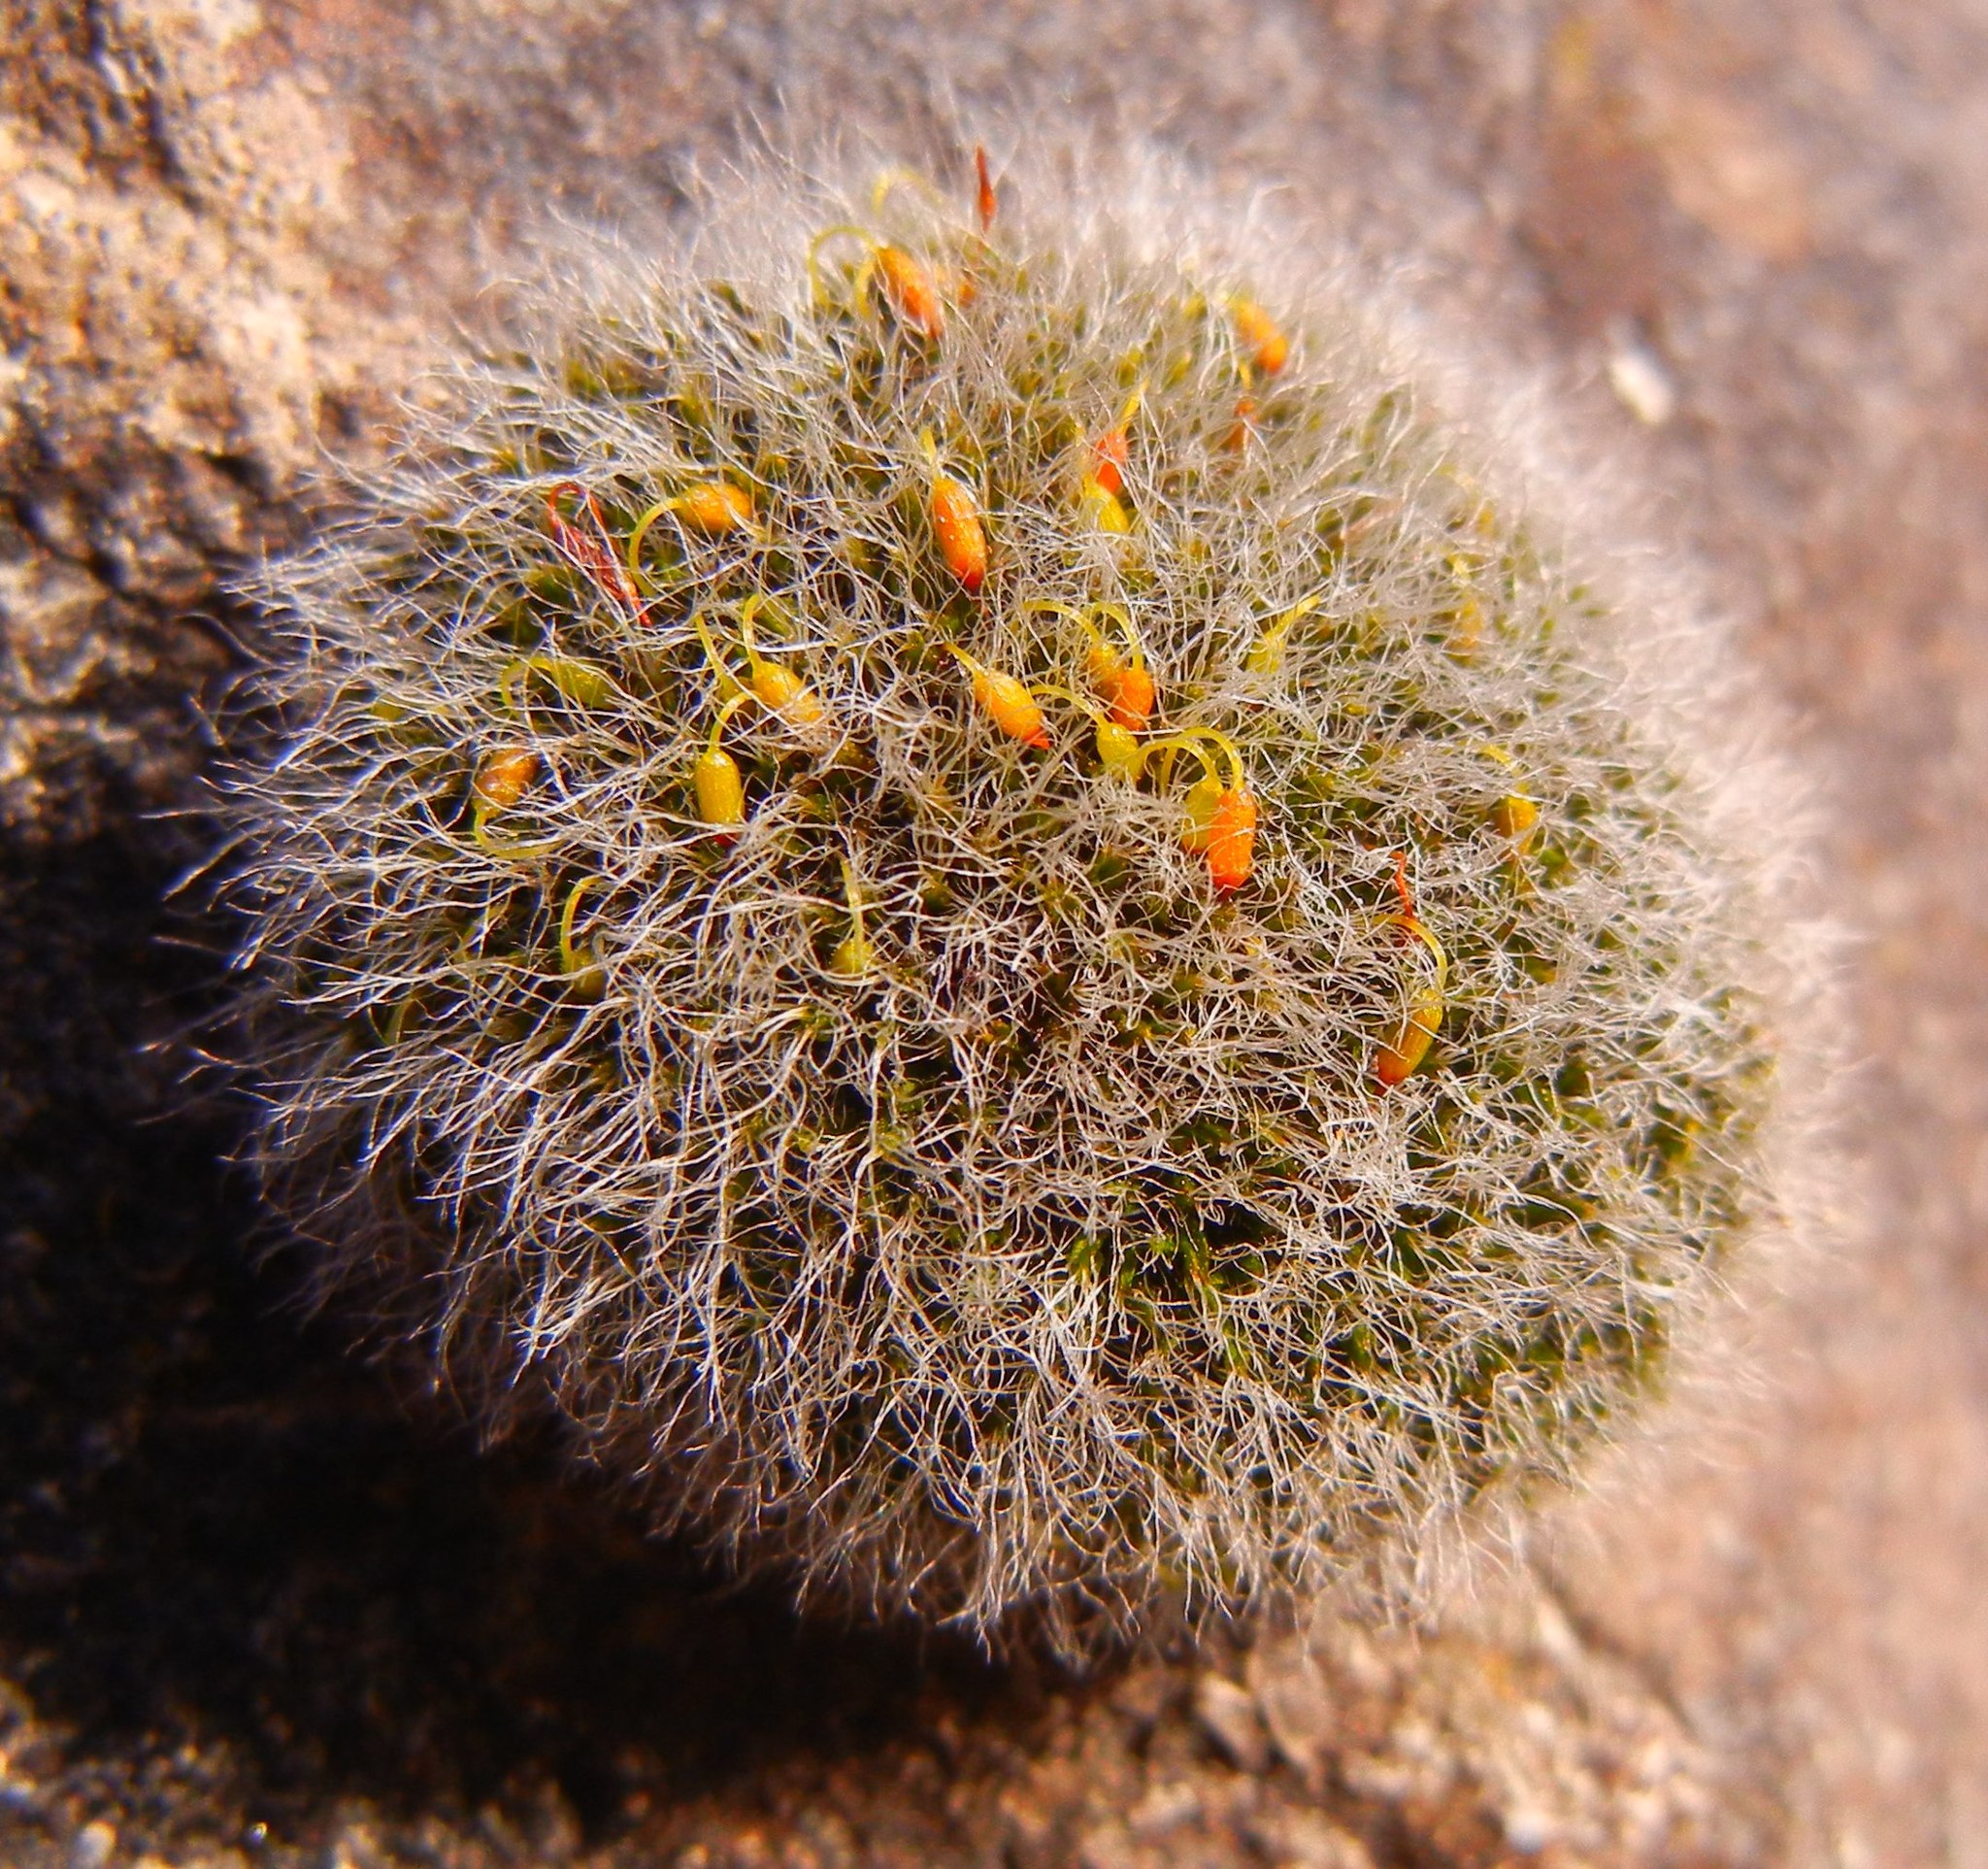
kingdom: Plantae
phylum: Bryophyta
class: Bryopsida
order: Grimmiales
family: Grimmiaceae
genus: Grimmia
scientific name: Grimmia pulvinata
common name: Grey-cushioned grimmia
